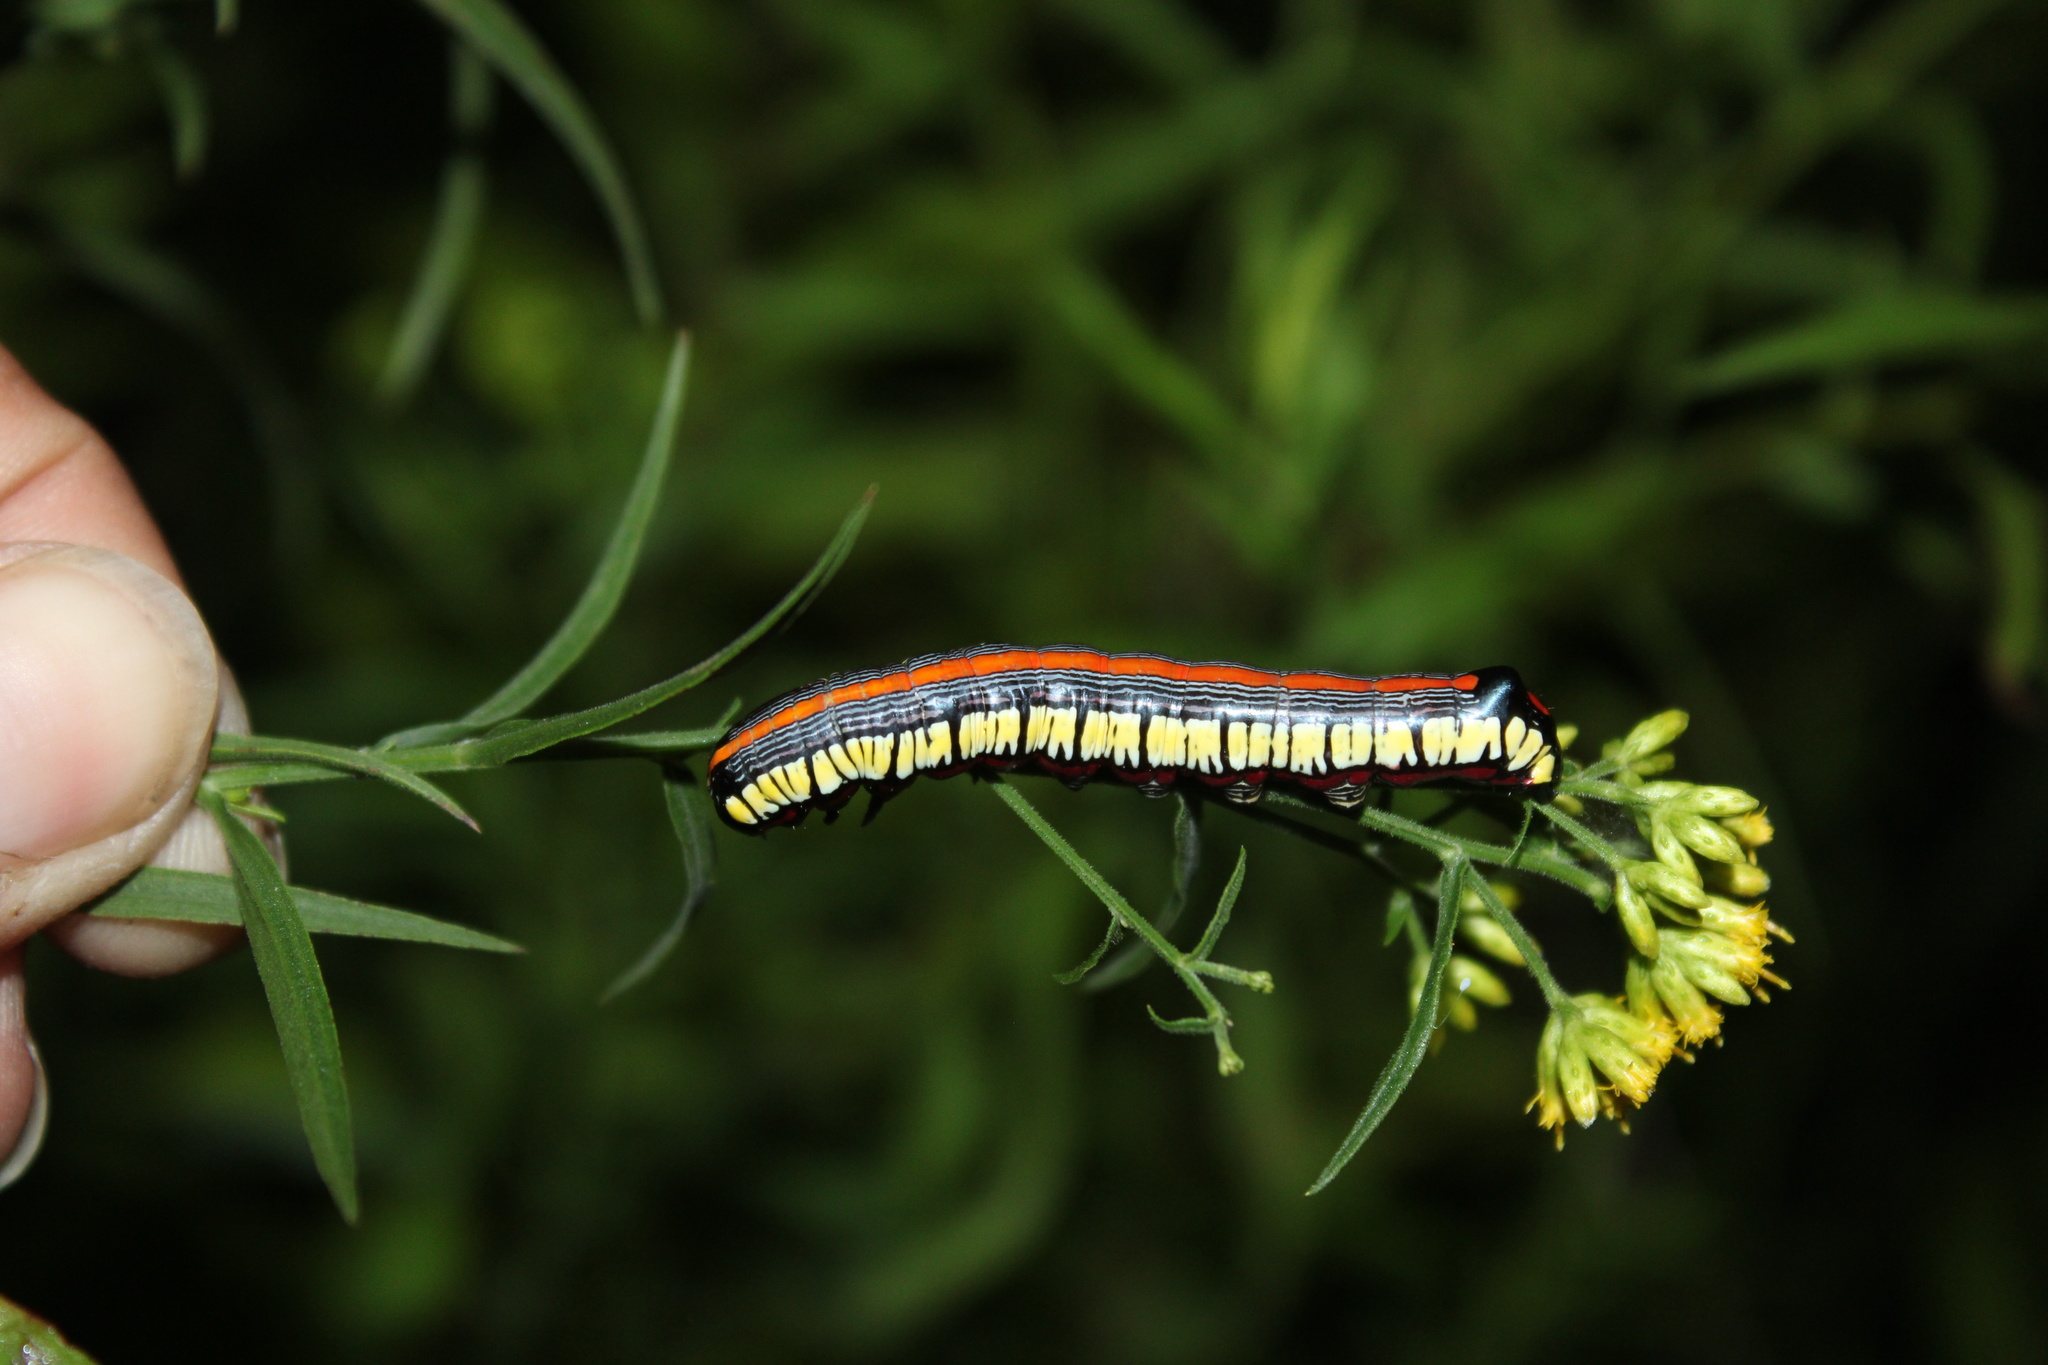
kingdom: Animalia
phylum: Arthropoda
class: Insecta
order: Lepidoptera
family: Noctuidae
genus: Cucullia
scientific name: Cucullia convexipennis
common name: Brown-hooded owlet
